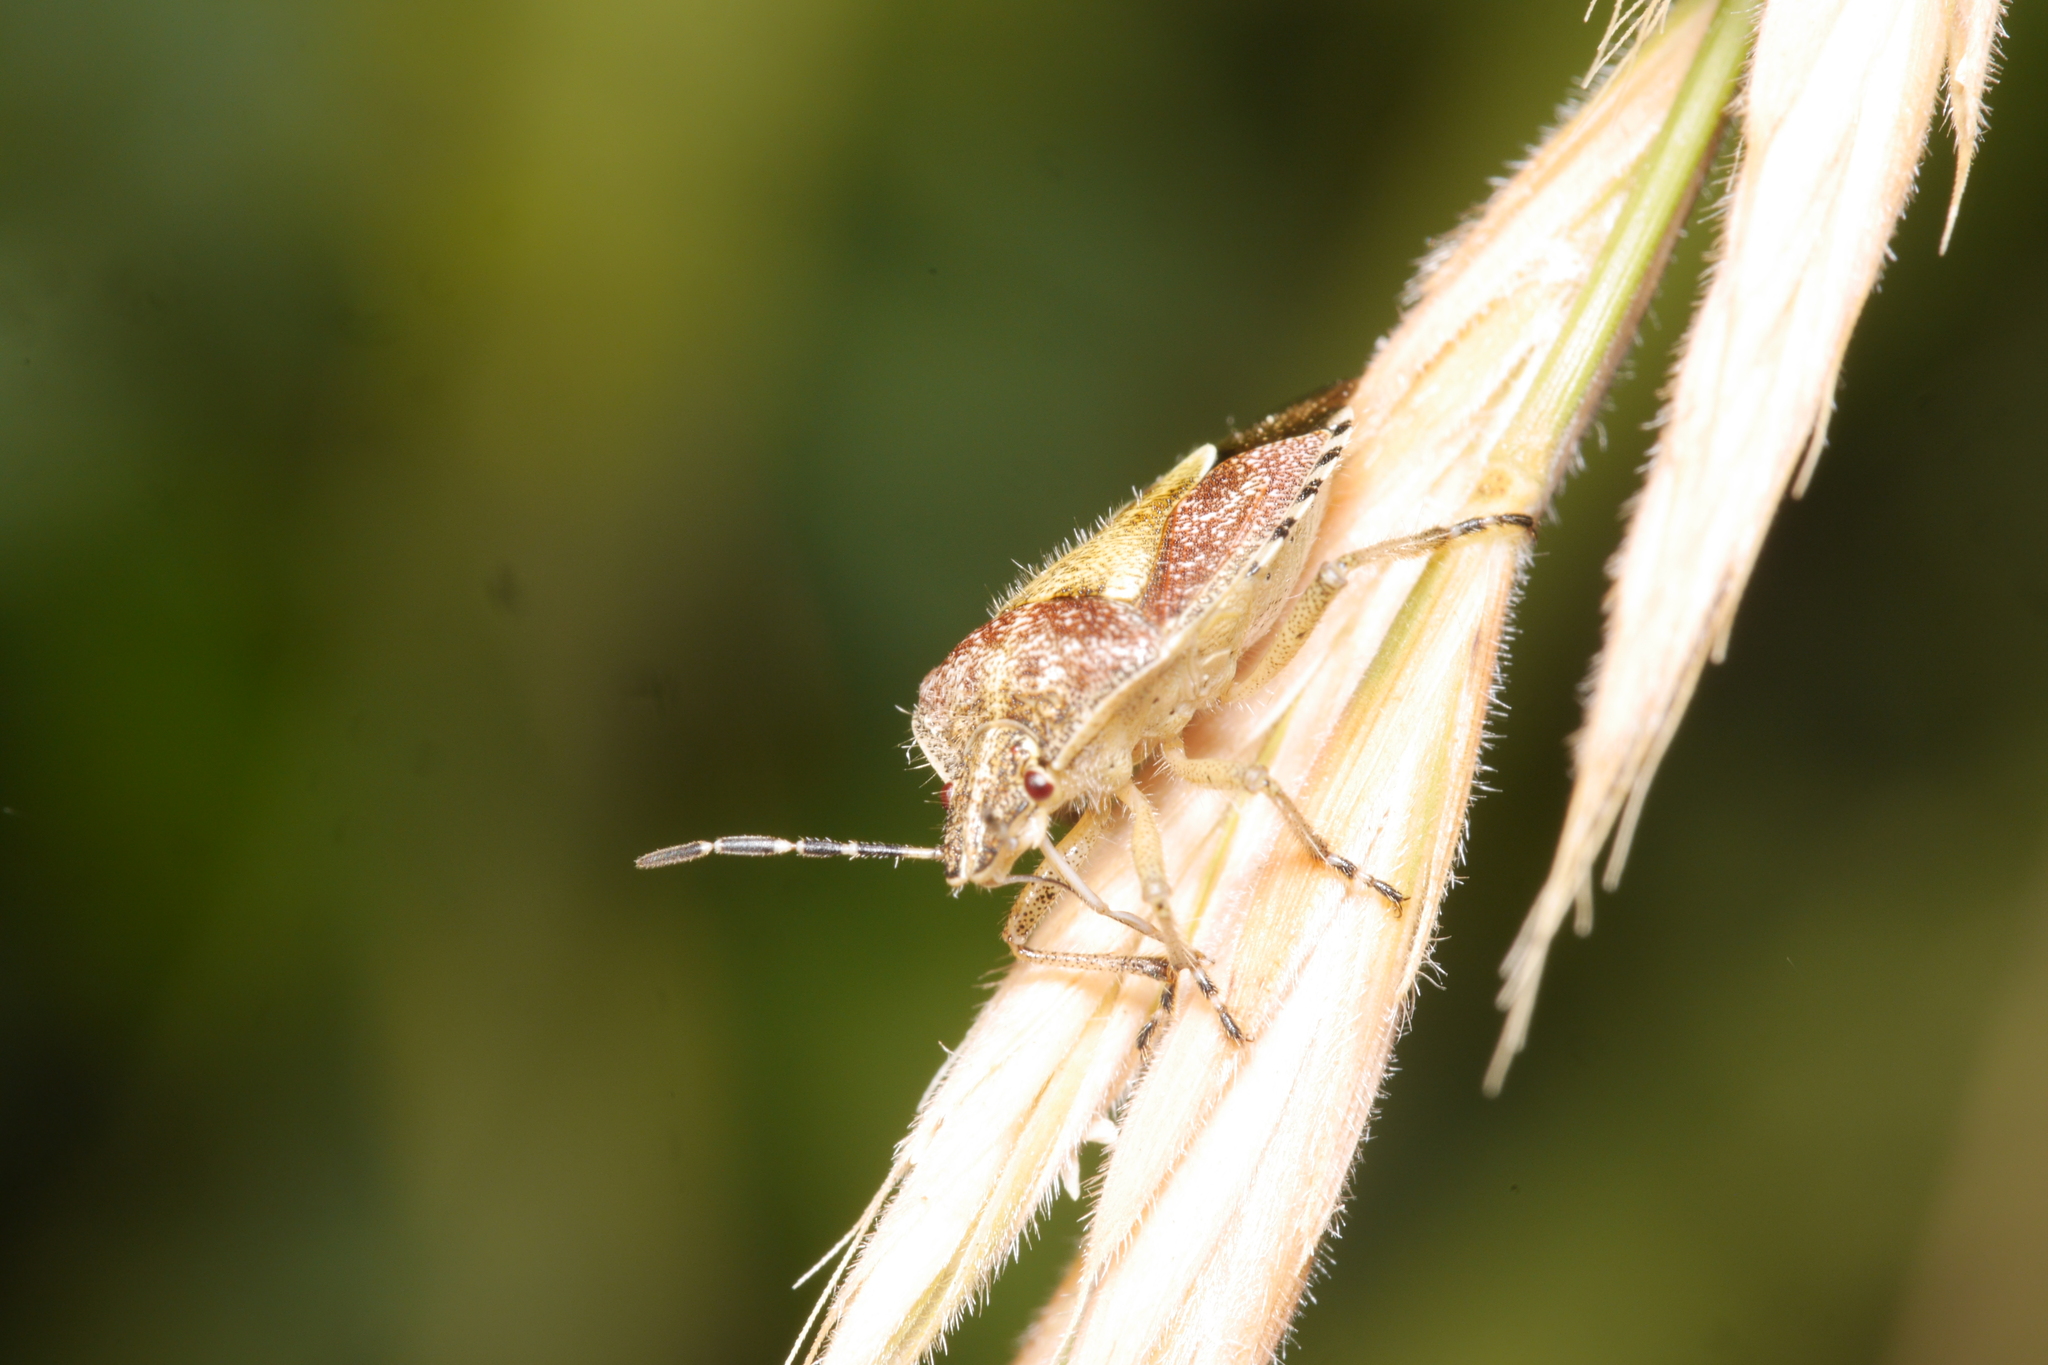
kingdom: Animalia
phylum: Arthropoda
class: Insecta
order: Hemiptera
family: Pentatomidae
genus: Dolycoris
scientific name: Dolycoris baccarum
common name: Sloe bug
